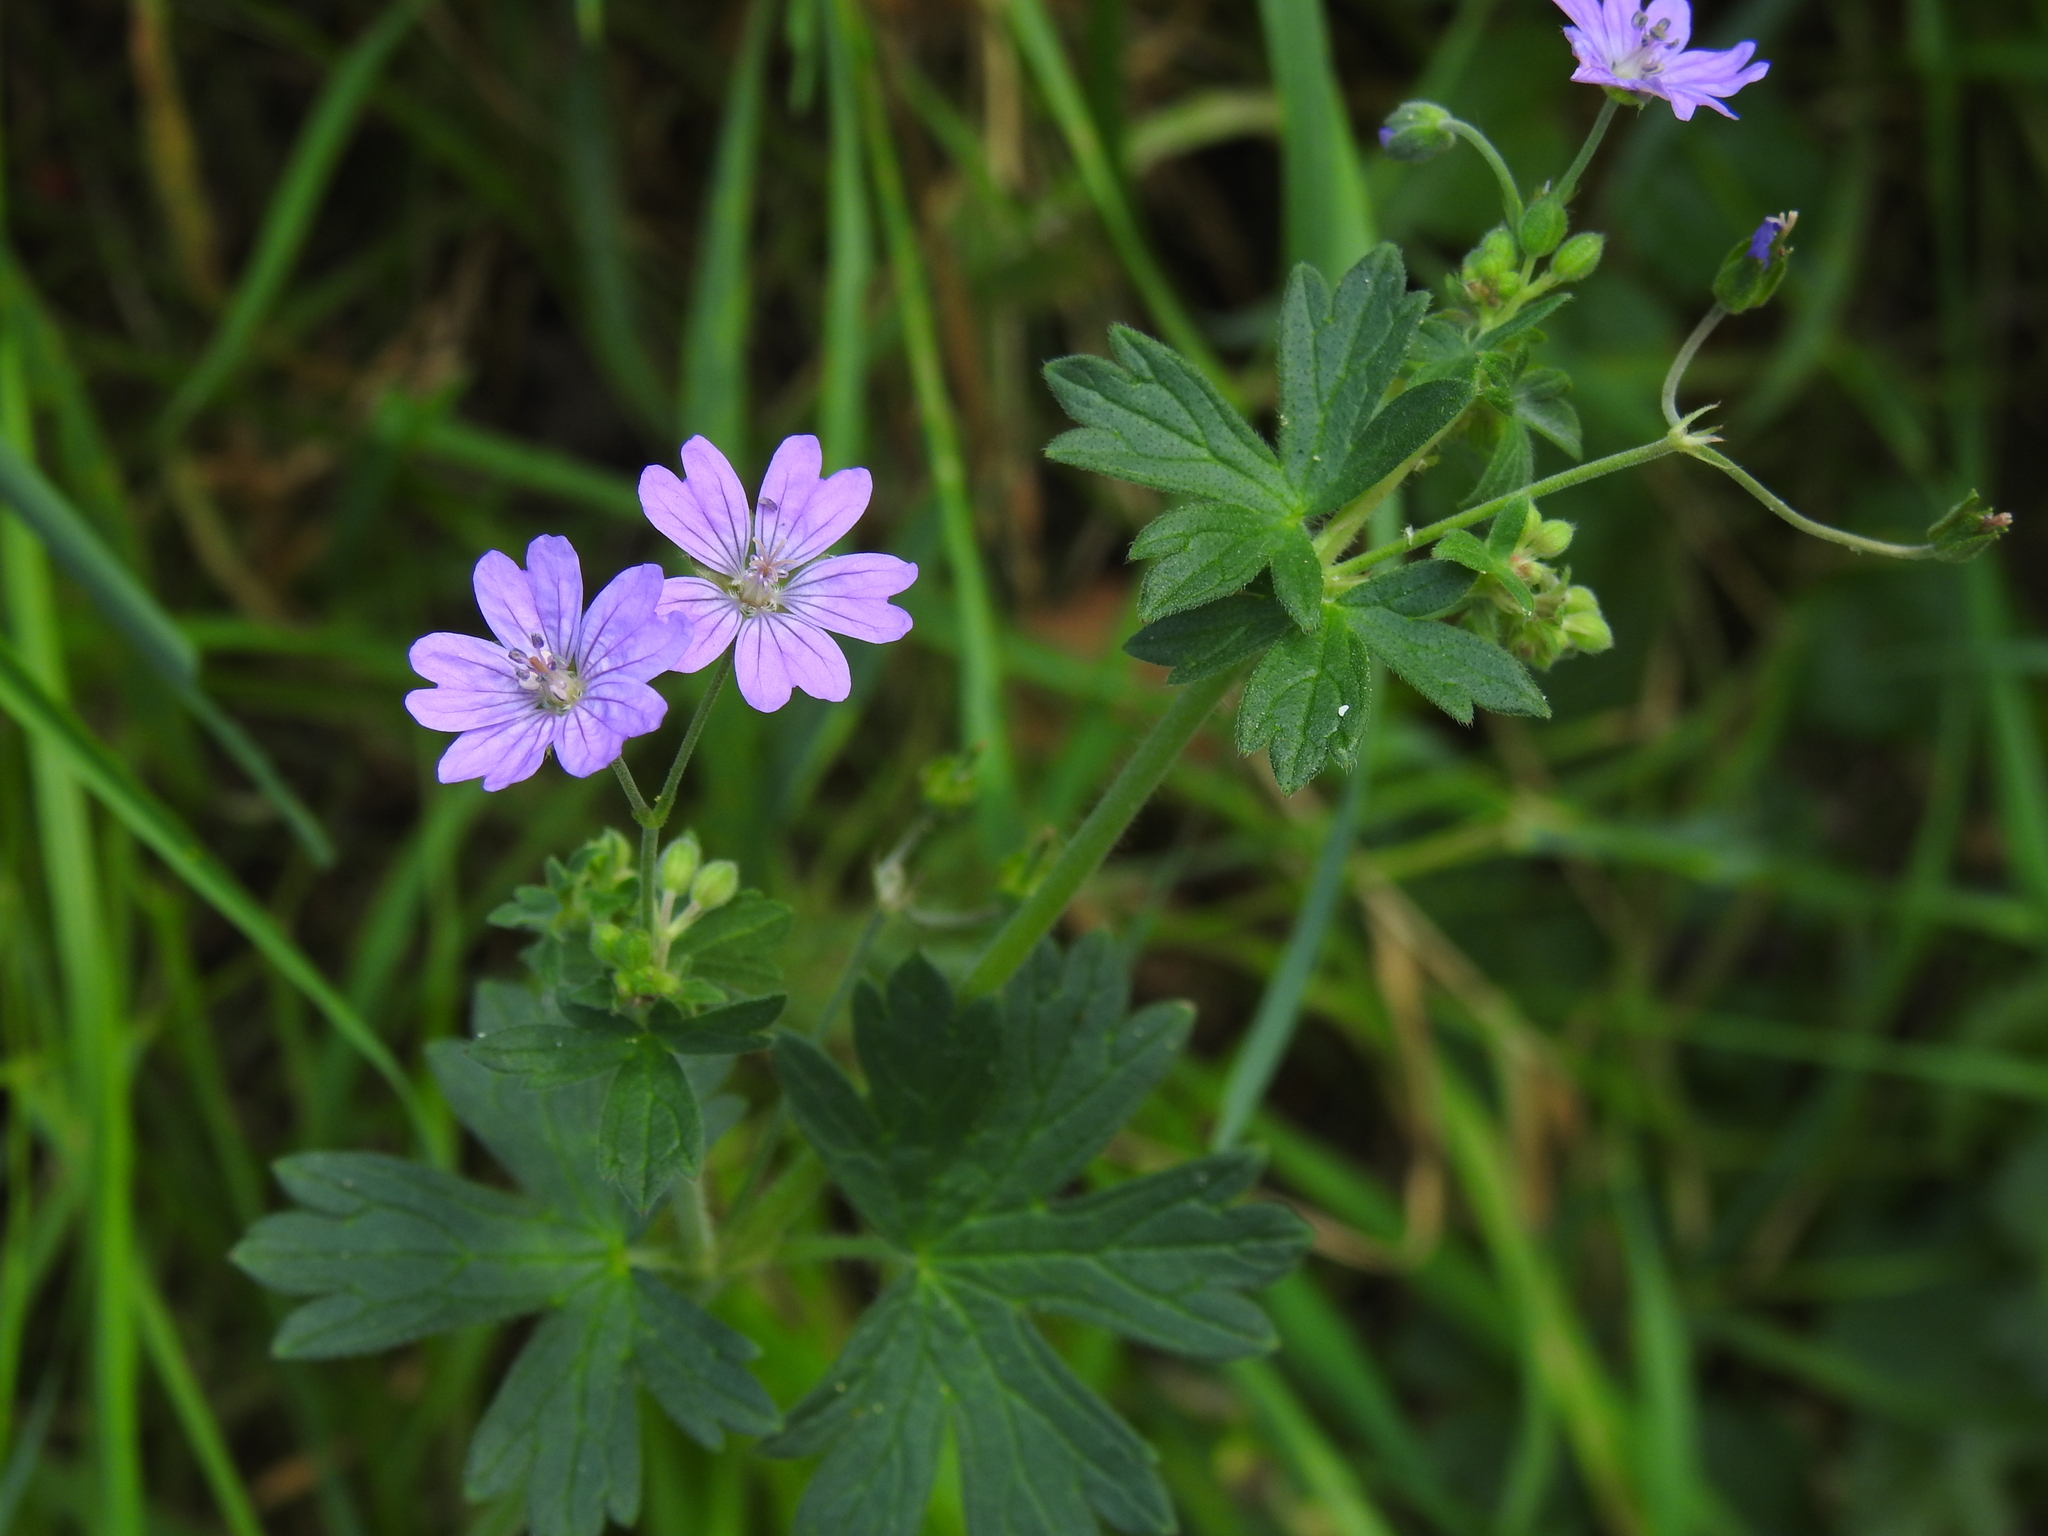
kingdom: Plantae
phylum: Tracheophyta
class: Magnoliopsida
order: Geraniales
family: Geraniaceae
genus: Geranium
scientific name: Geranium pyrenaicum
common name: Hedgerow crane's-bill
